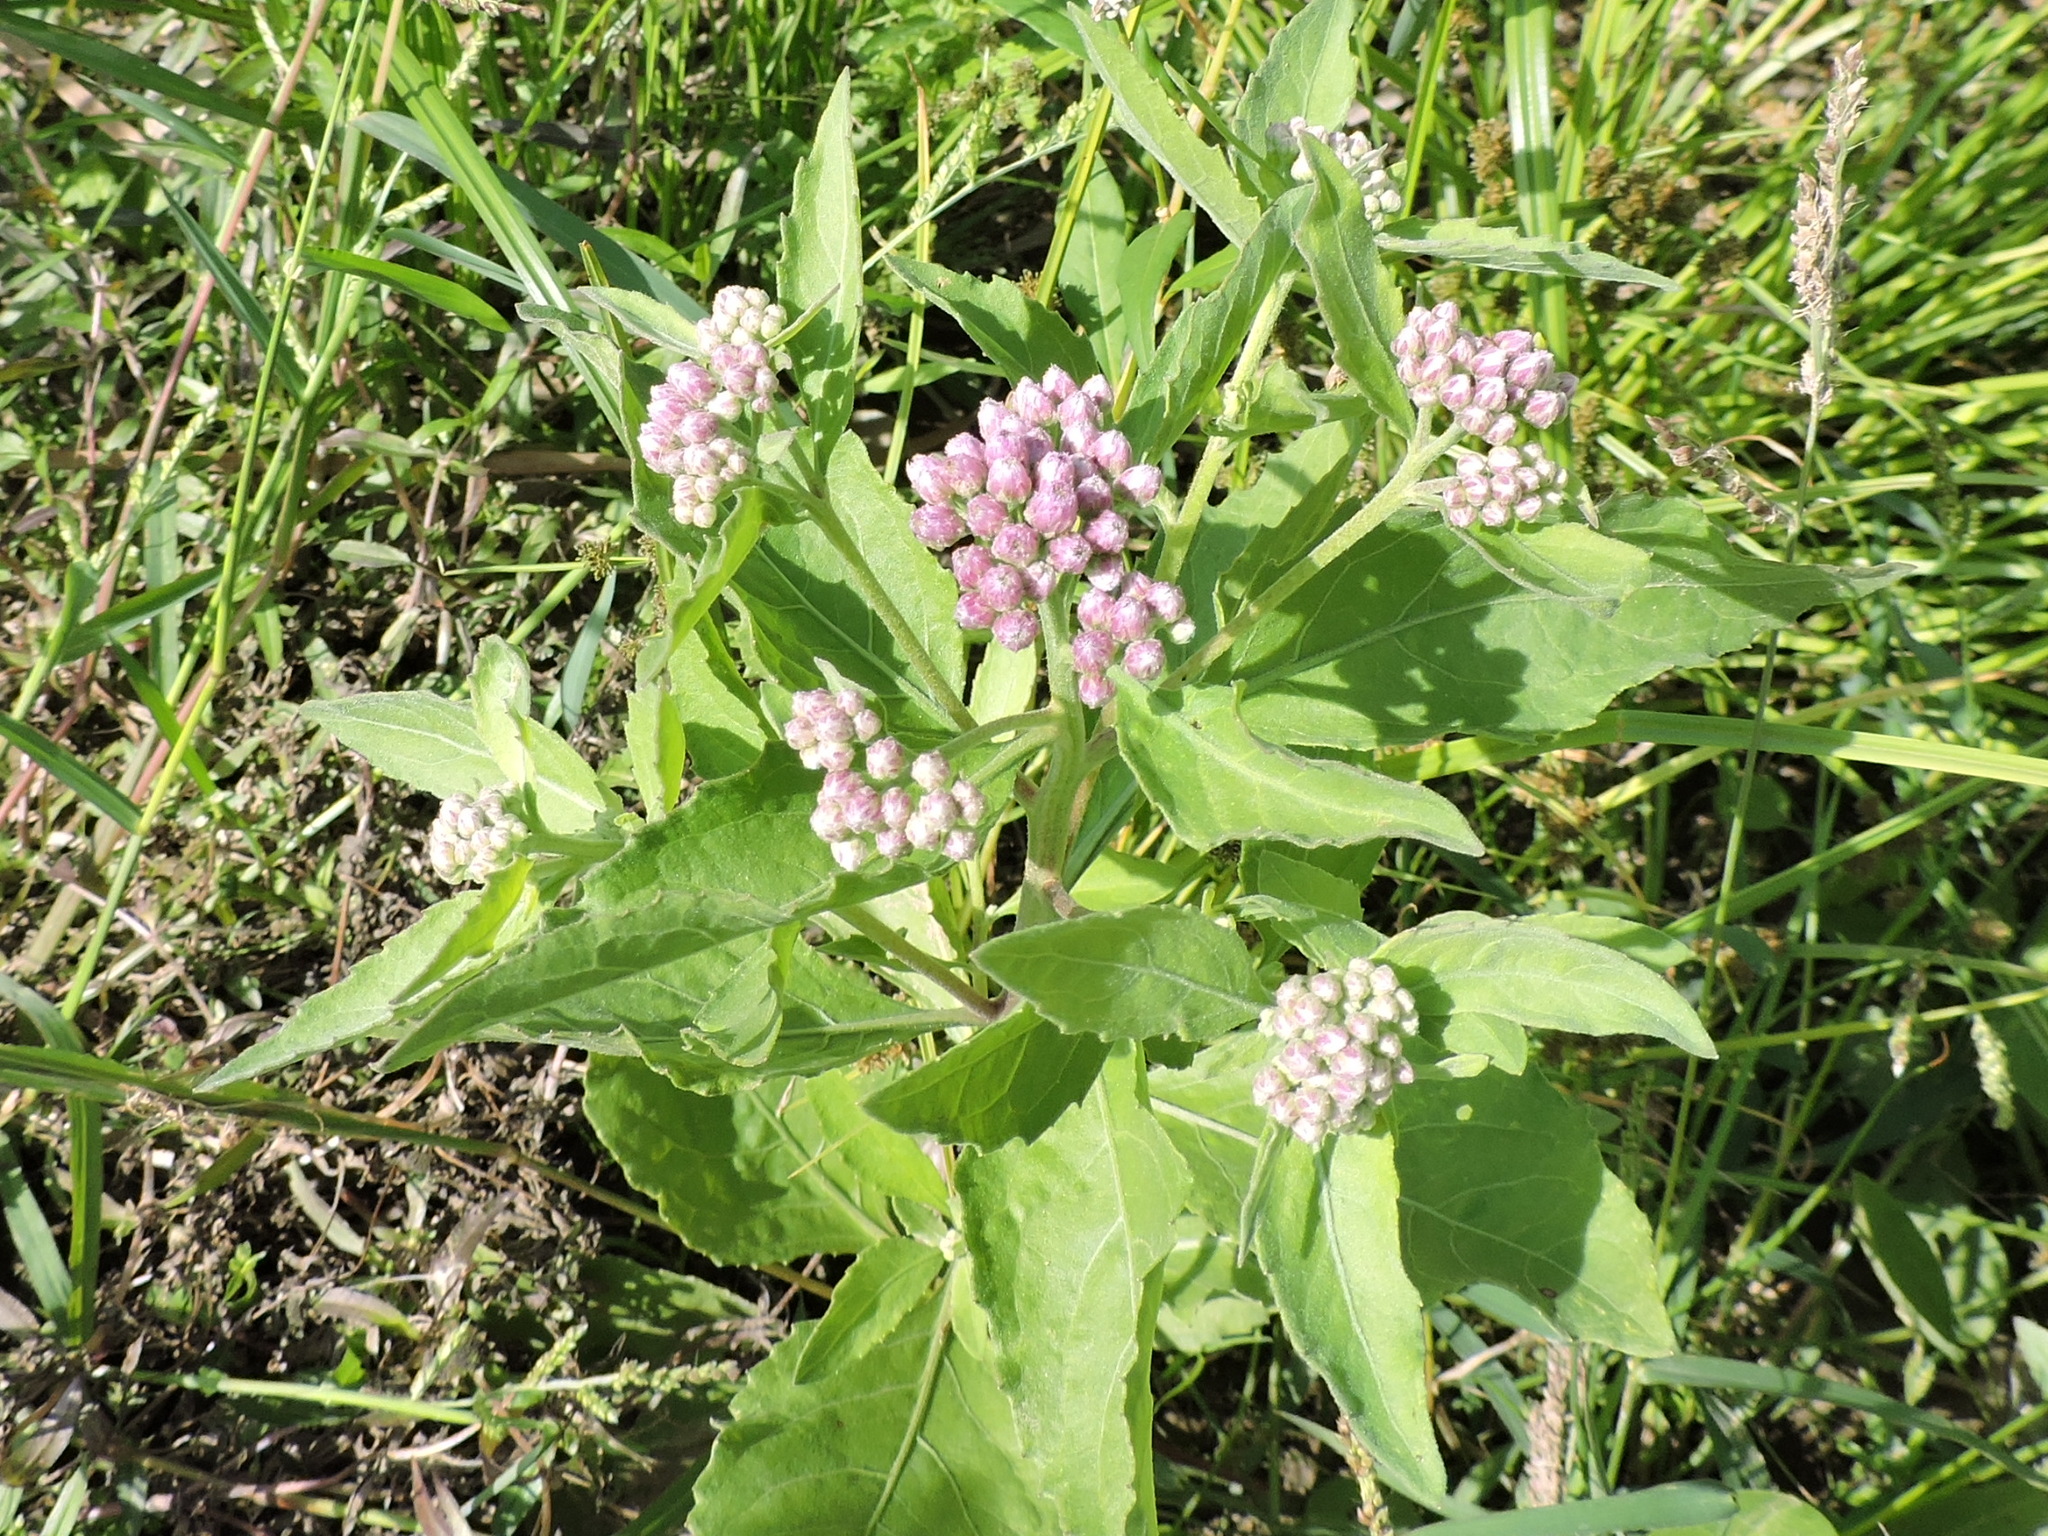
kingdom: Plantae
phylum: Tracheophyta
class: Magnoliopsida
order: Asterales
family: Asteraceae
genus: Pluchea
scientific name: Pluchea odorata
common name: Saltmarsh fleabane
